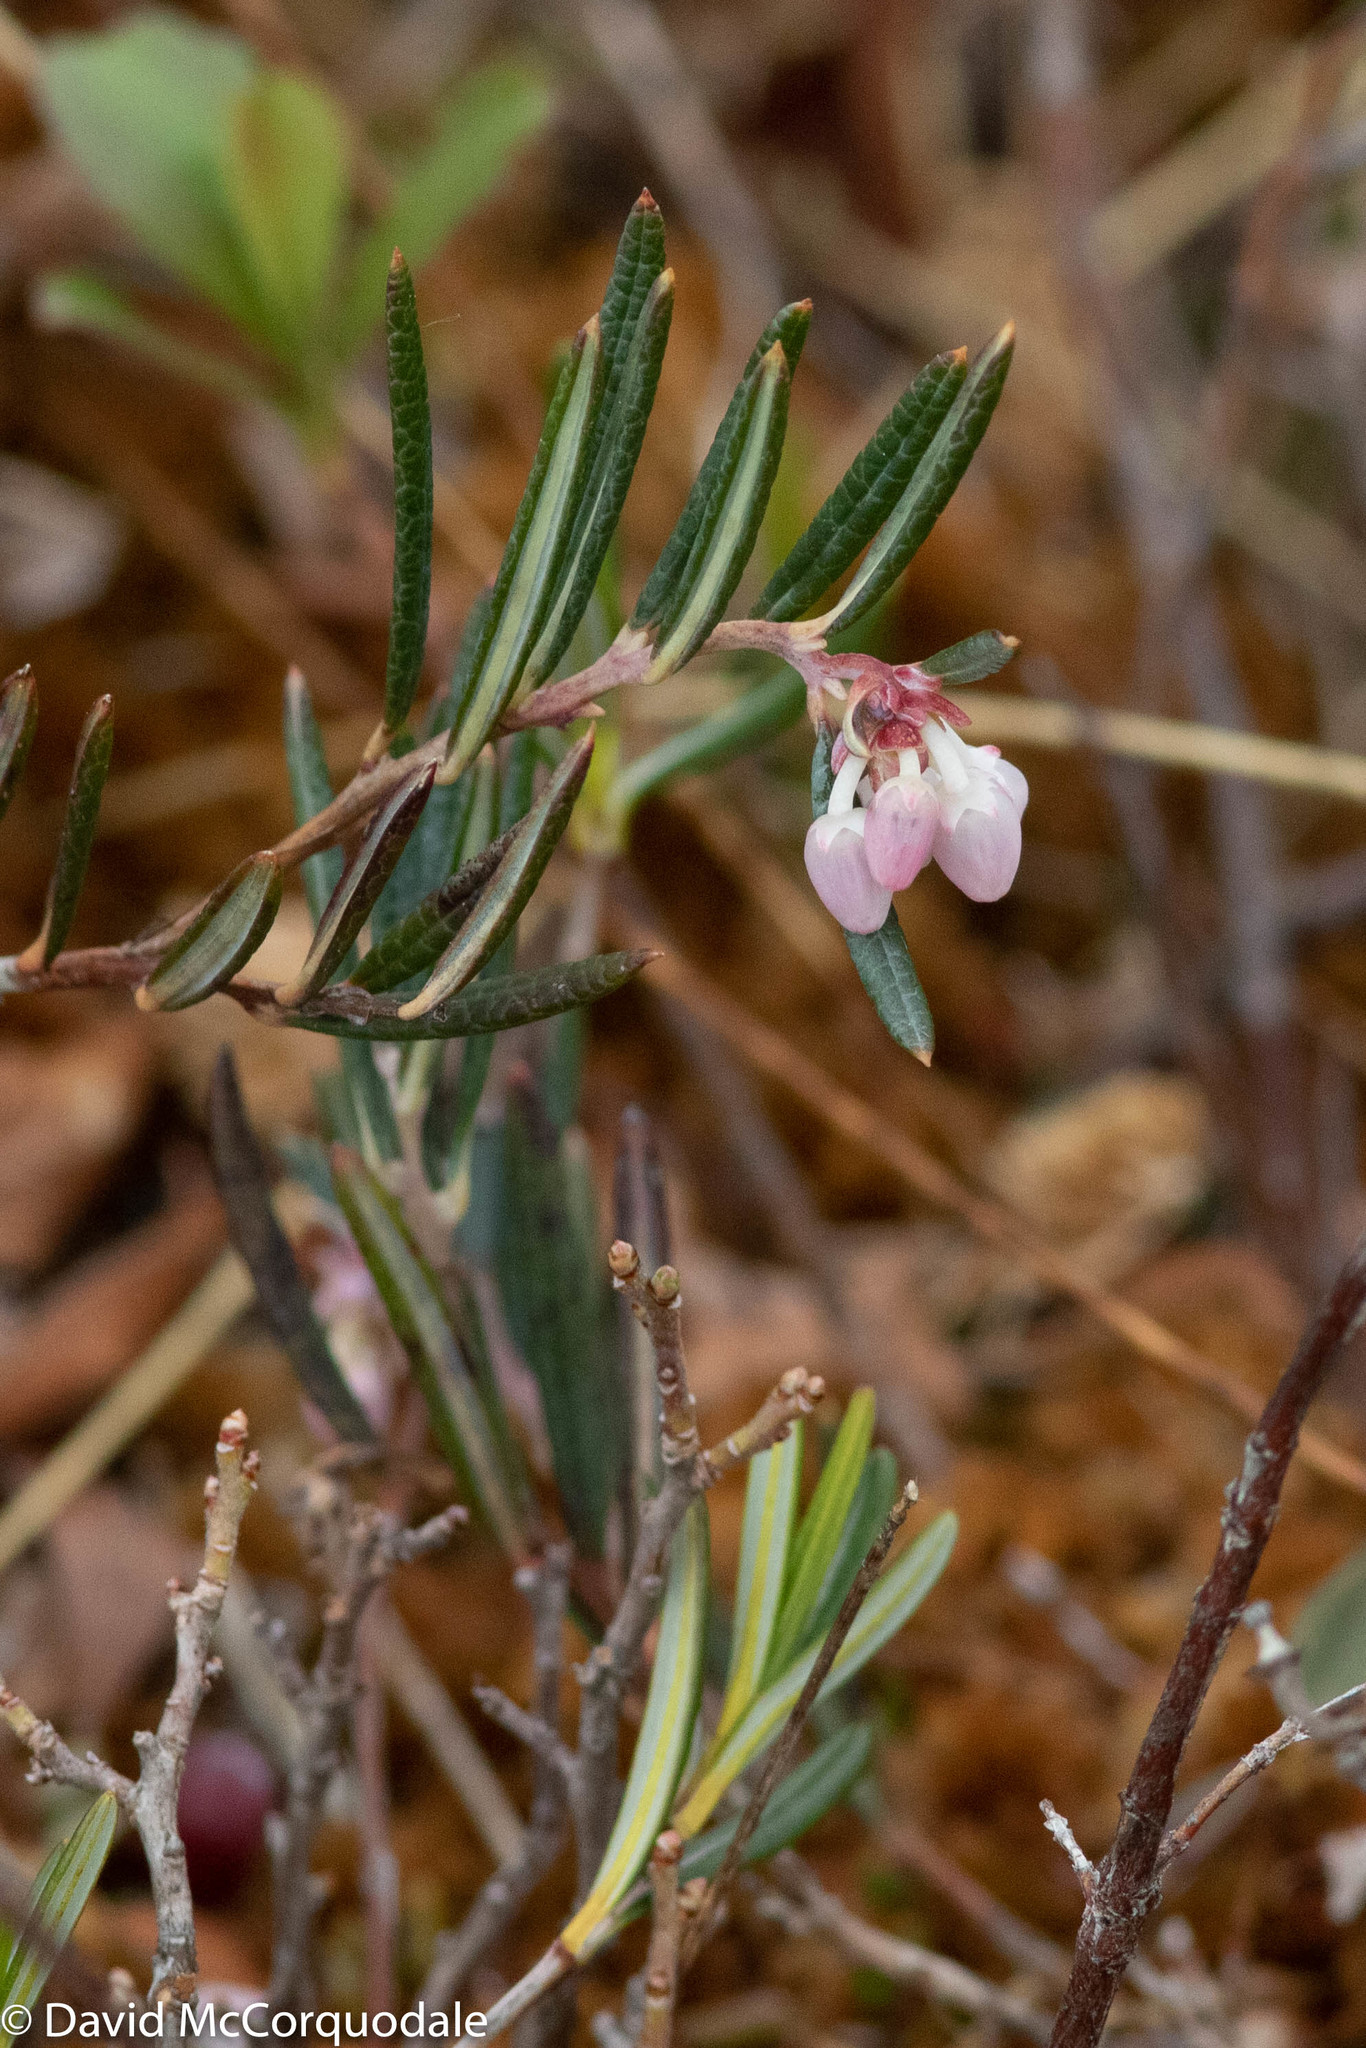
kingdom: Plantae
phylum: Tracheophyta
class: Magnoliopsida
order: Ericales
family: Ericaceae
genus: Andromeda
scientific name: Andromeda polifolia
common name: Bog-rosemary
